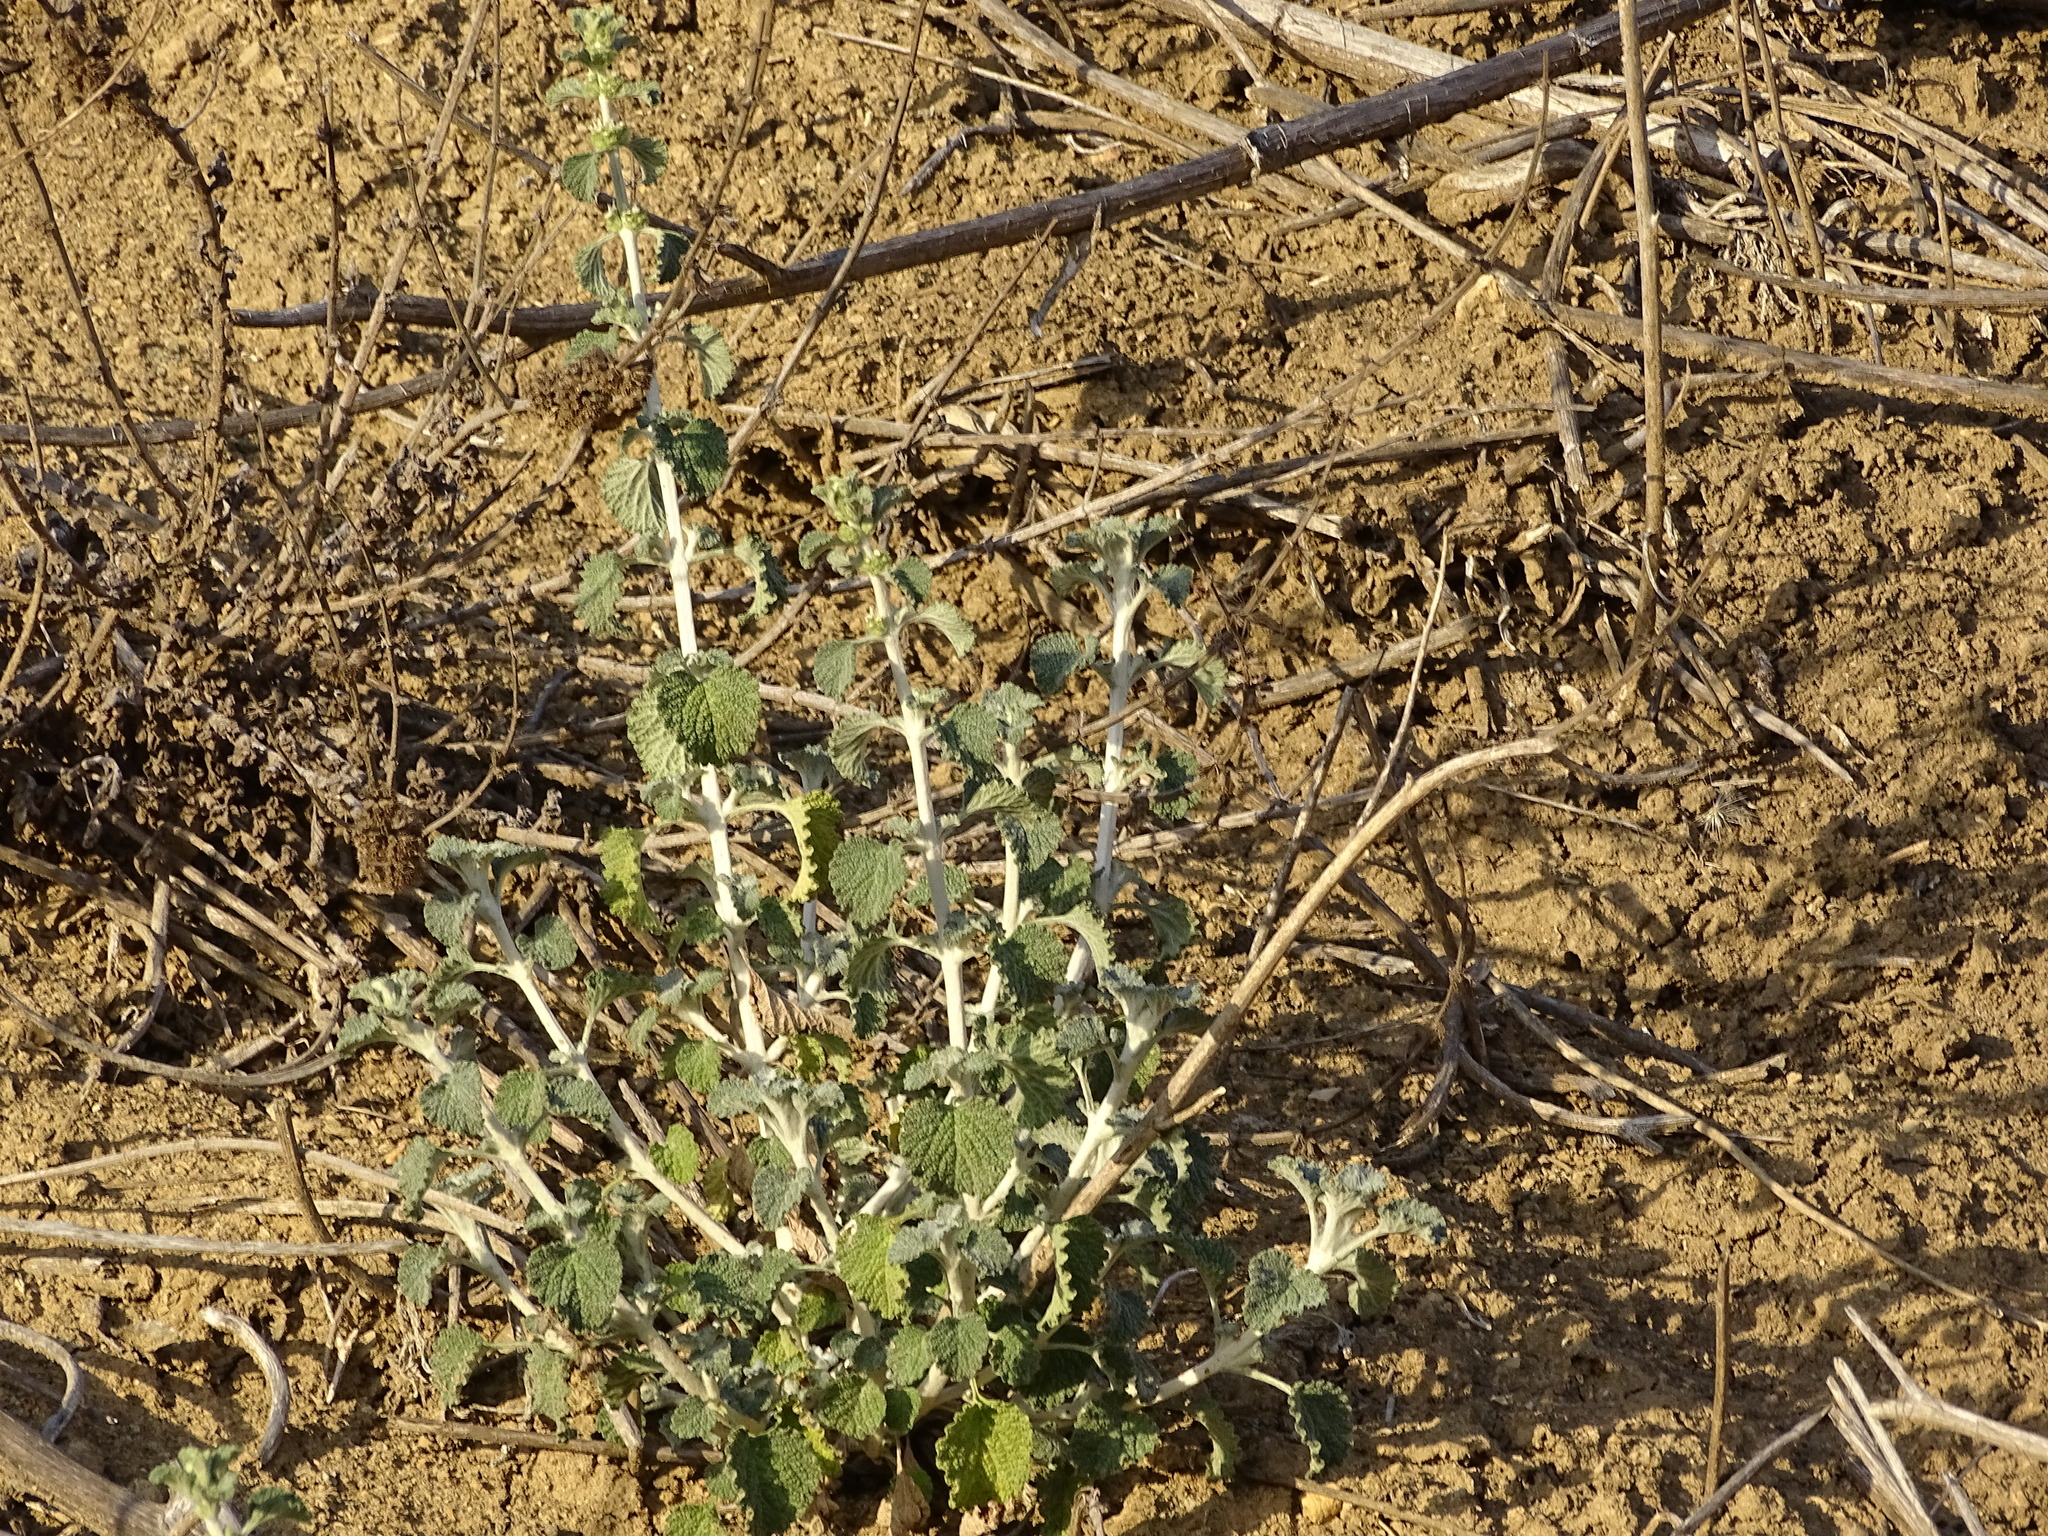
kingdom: Plantae
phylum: Tracheophyta
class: Magnoliopsida
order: Lamiales
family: Lamiaceae
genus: Marrubium
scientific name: Marrubium vulgare
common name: Horehound
